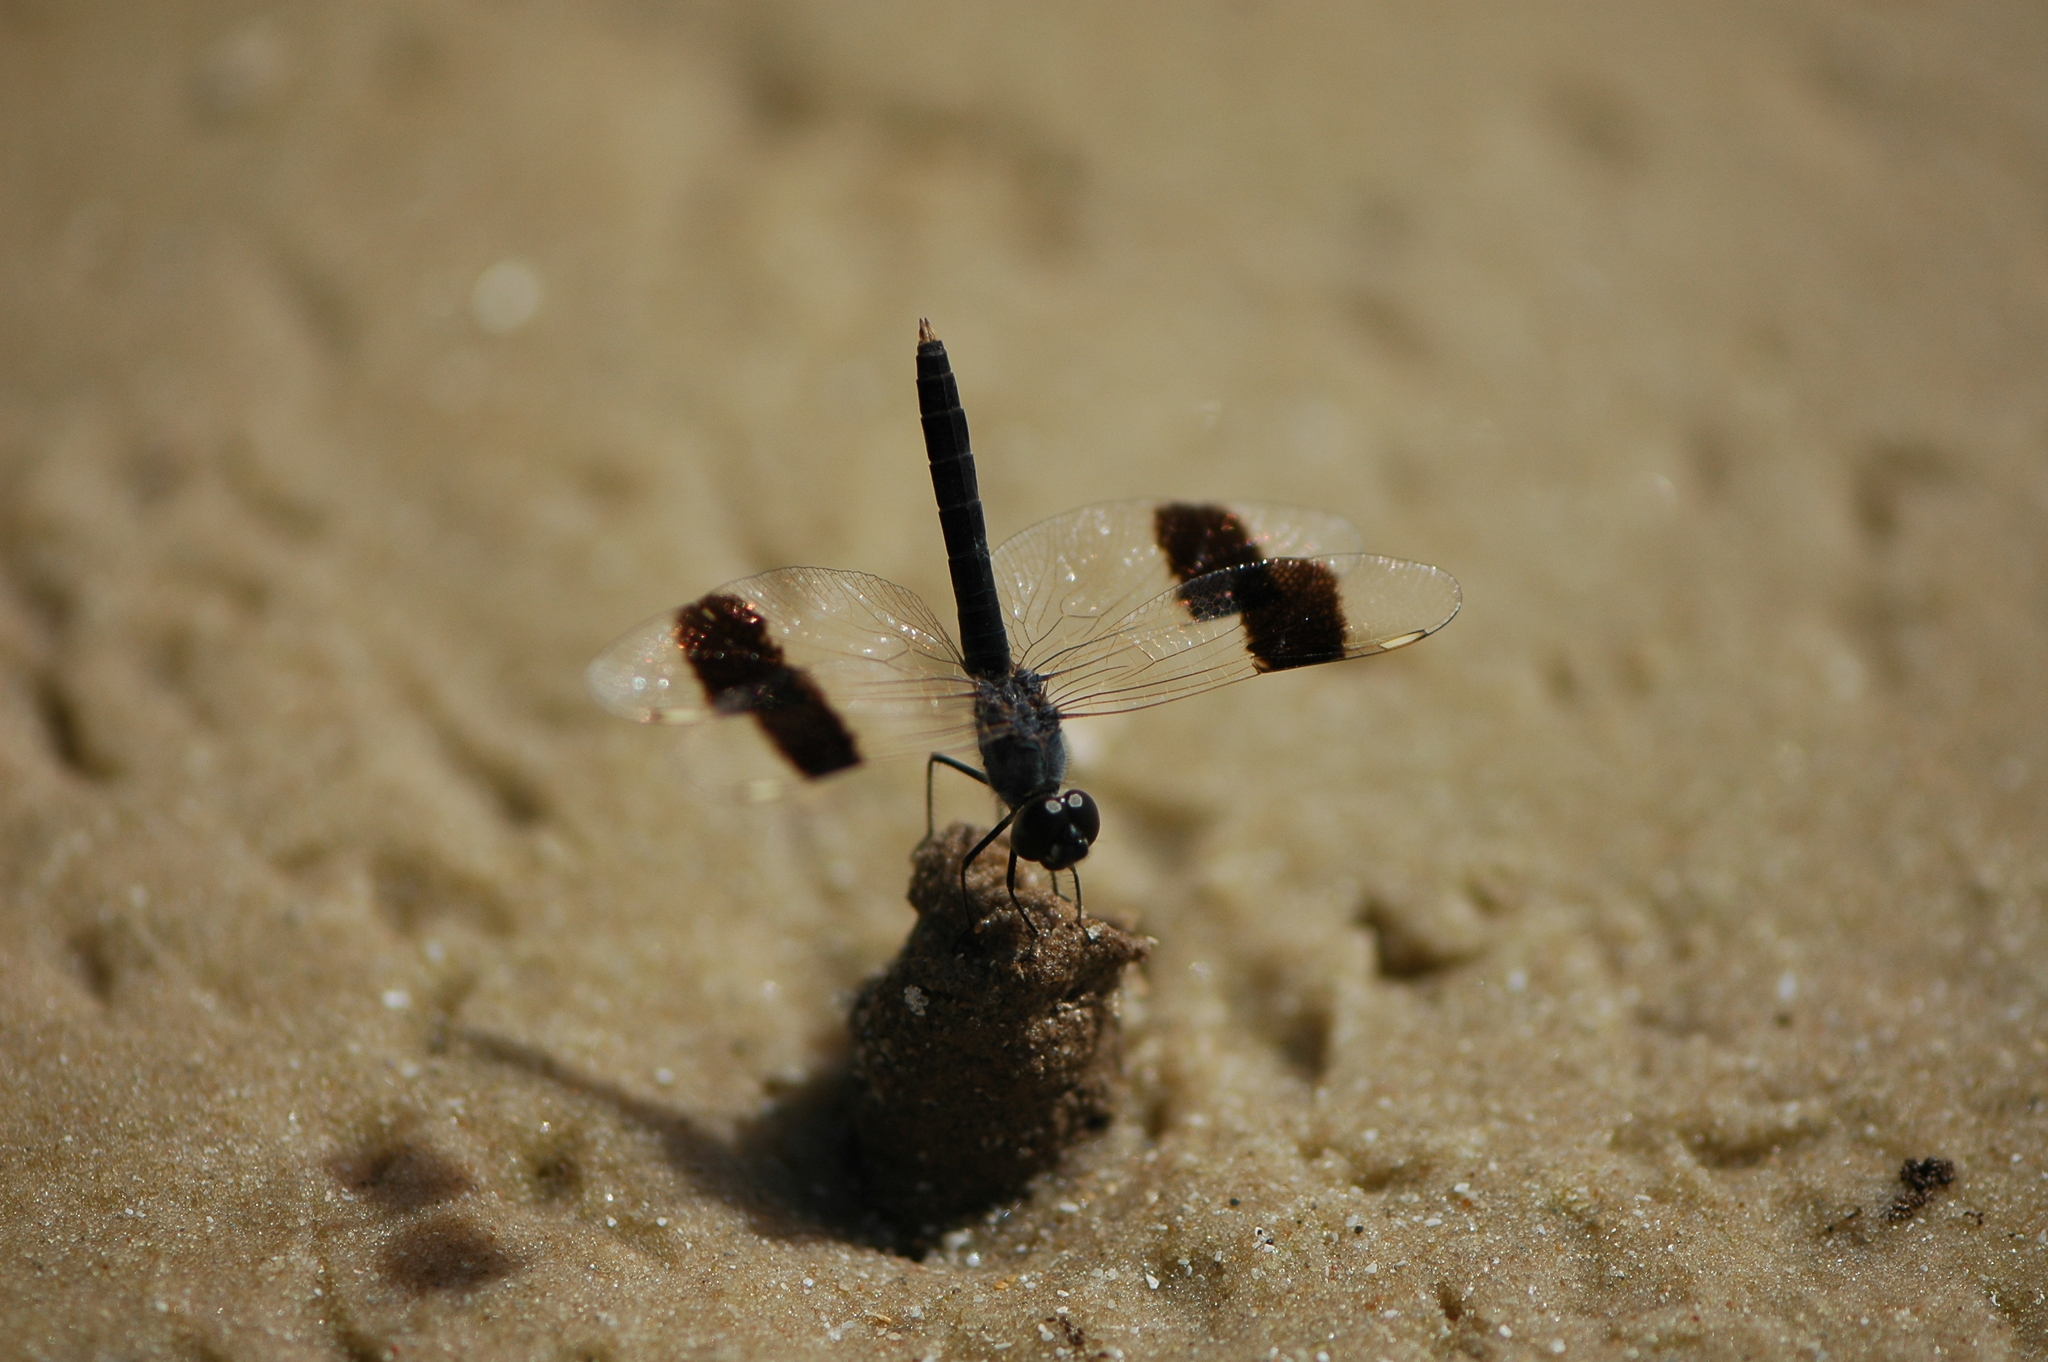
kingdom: Animalia
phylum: Arthropoda
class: Insecta
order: Odonata
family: Libellulidae
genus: Brachythemis
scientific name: Brachythemis impartita
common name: Banded groundling
